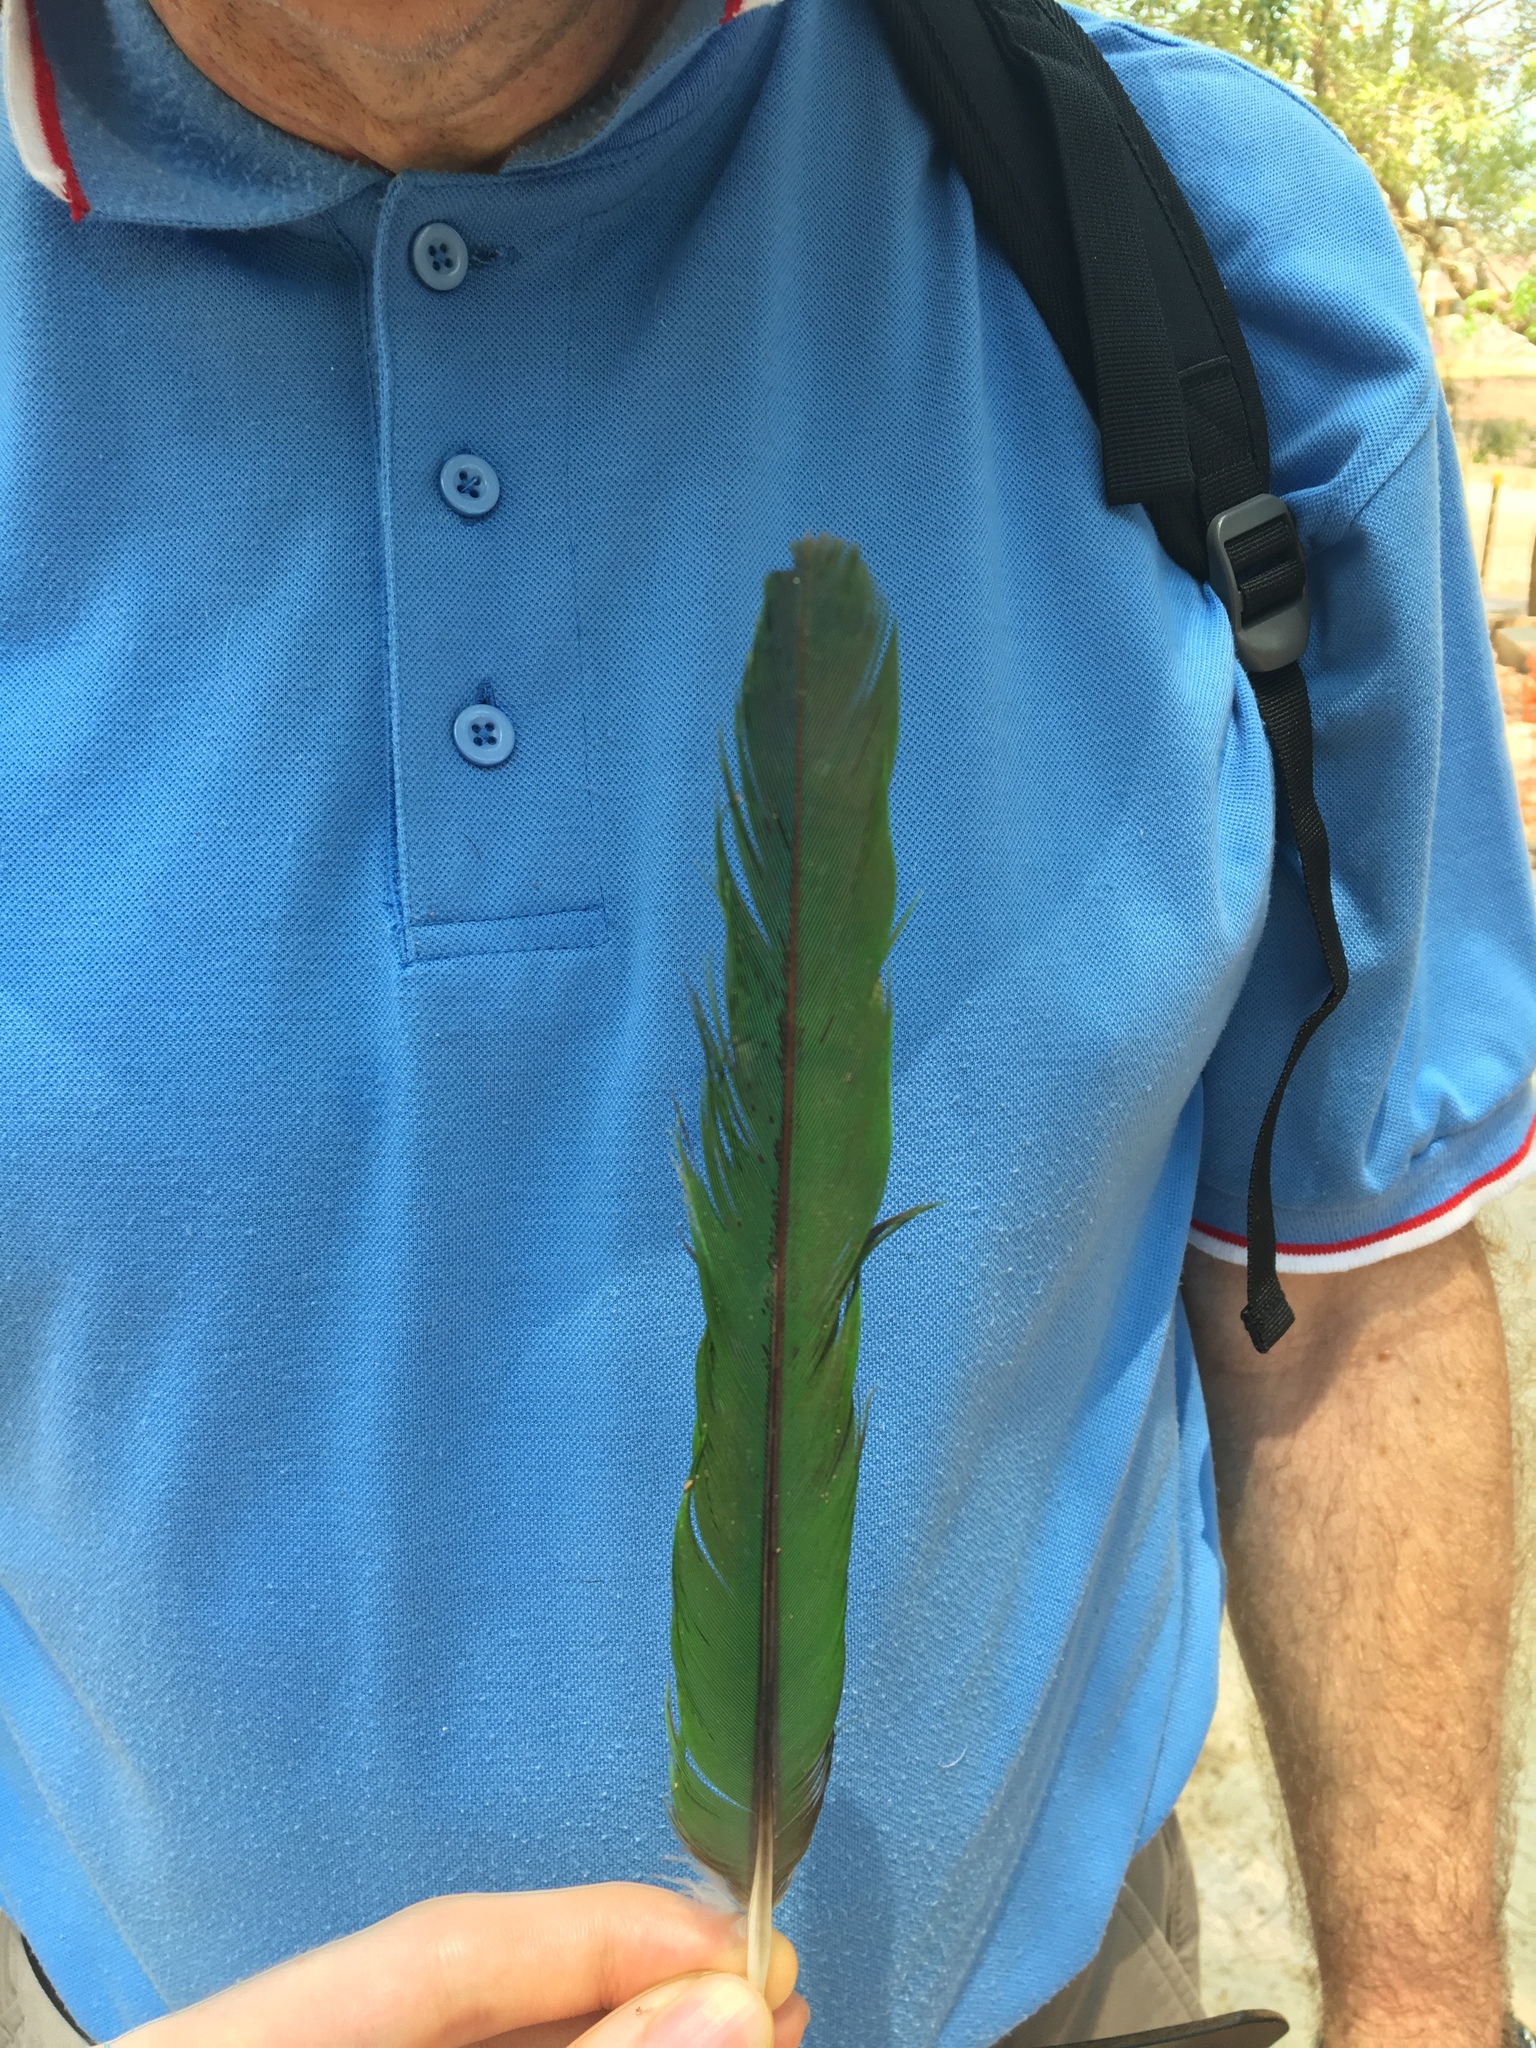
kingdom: Animalia
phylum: Chordata
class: Aves
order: Psittaciformes
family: Psittacidae
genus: Trichoglossus
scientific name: Trichoglossus haematodus
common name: Coconut lorikeet
